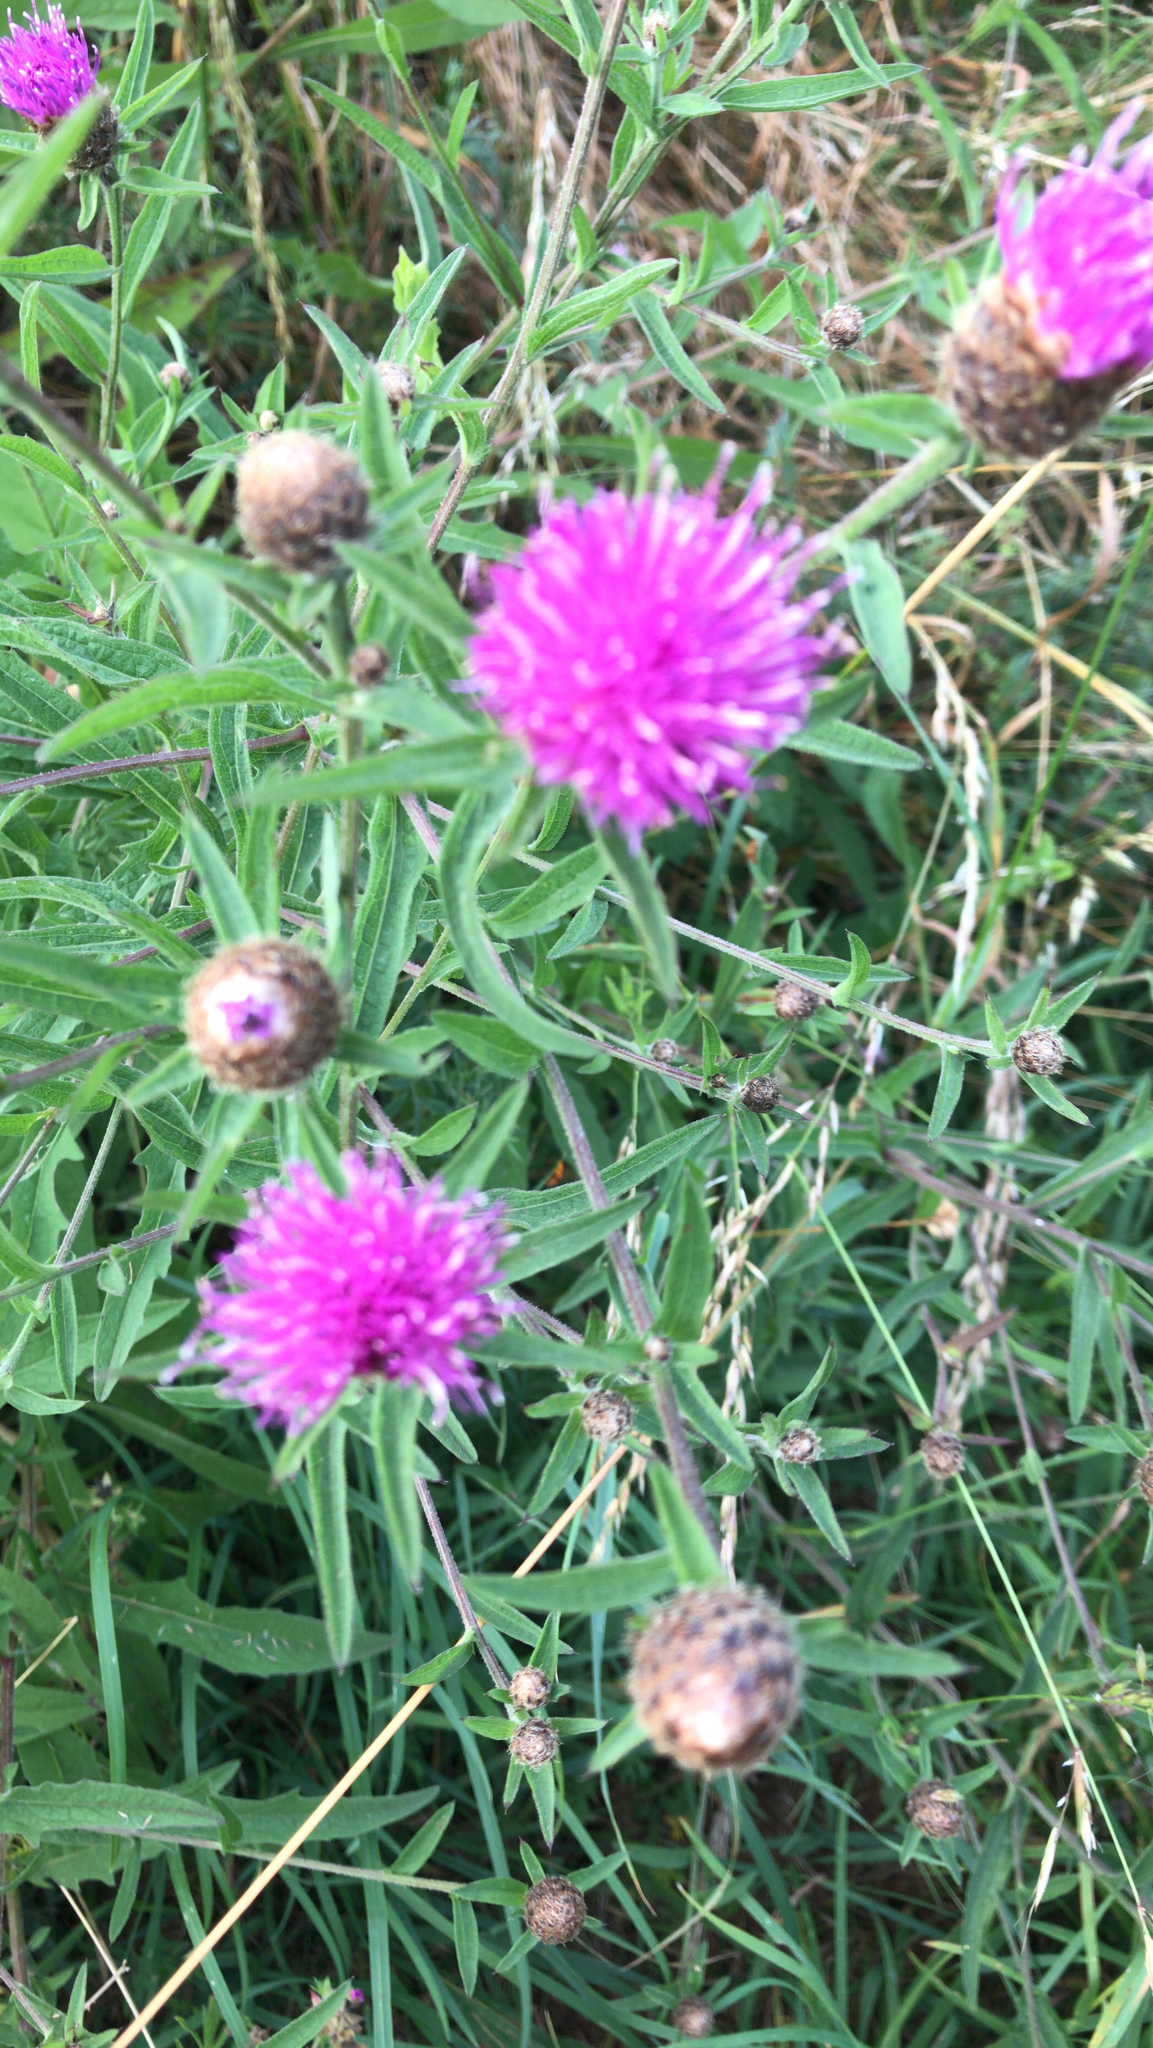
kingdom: Plantae
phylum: Tracheophyta
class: Magnoliopsida
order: Asterales
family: Asteraceae
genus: Centaurea
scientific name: Centaurea nigra
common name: Lesser knapweed
